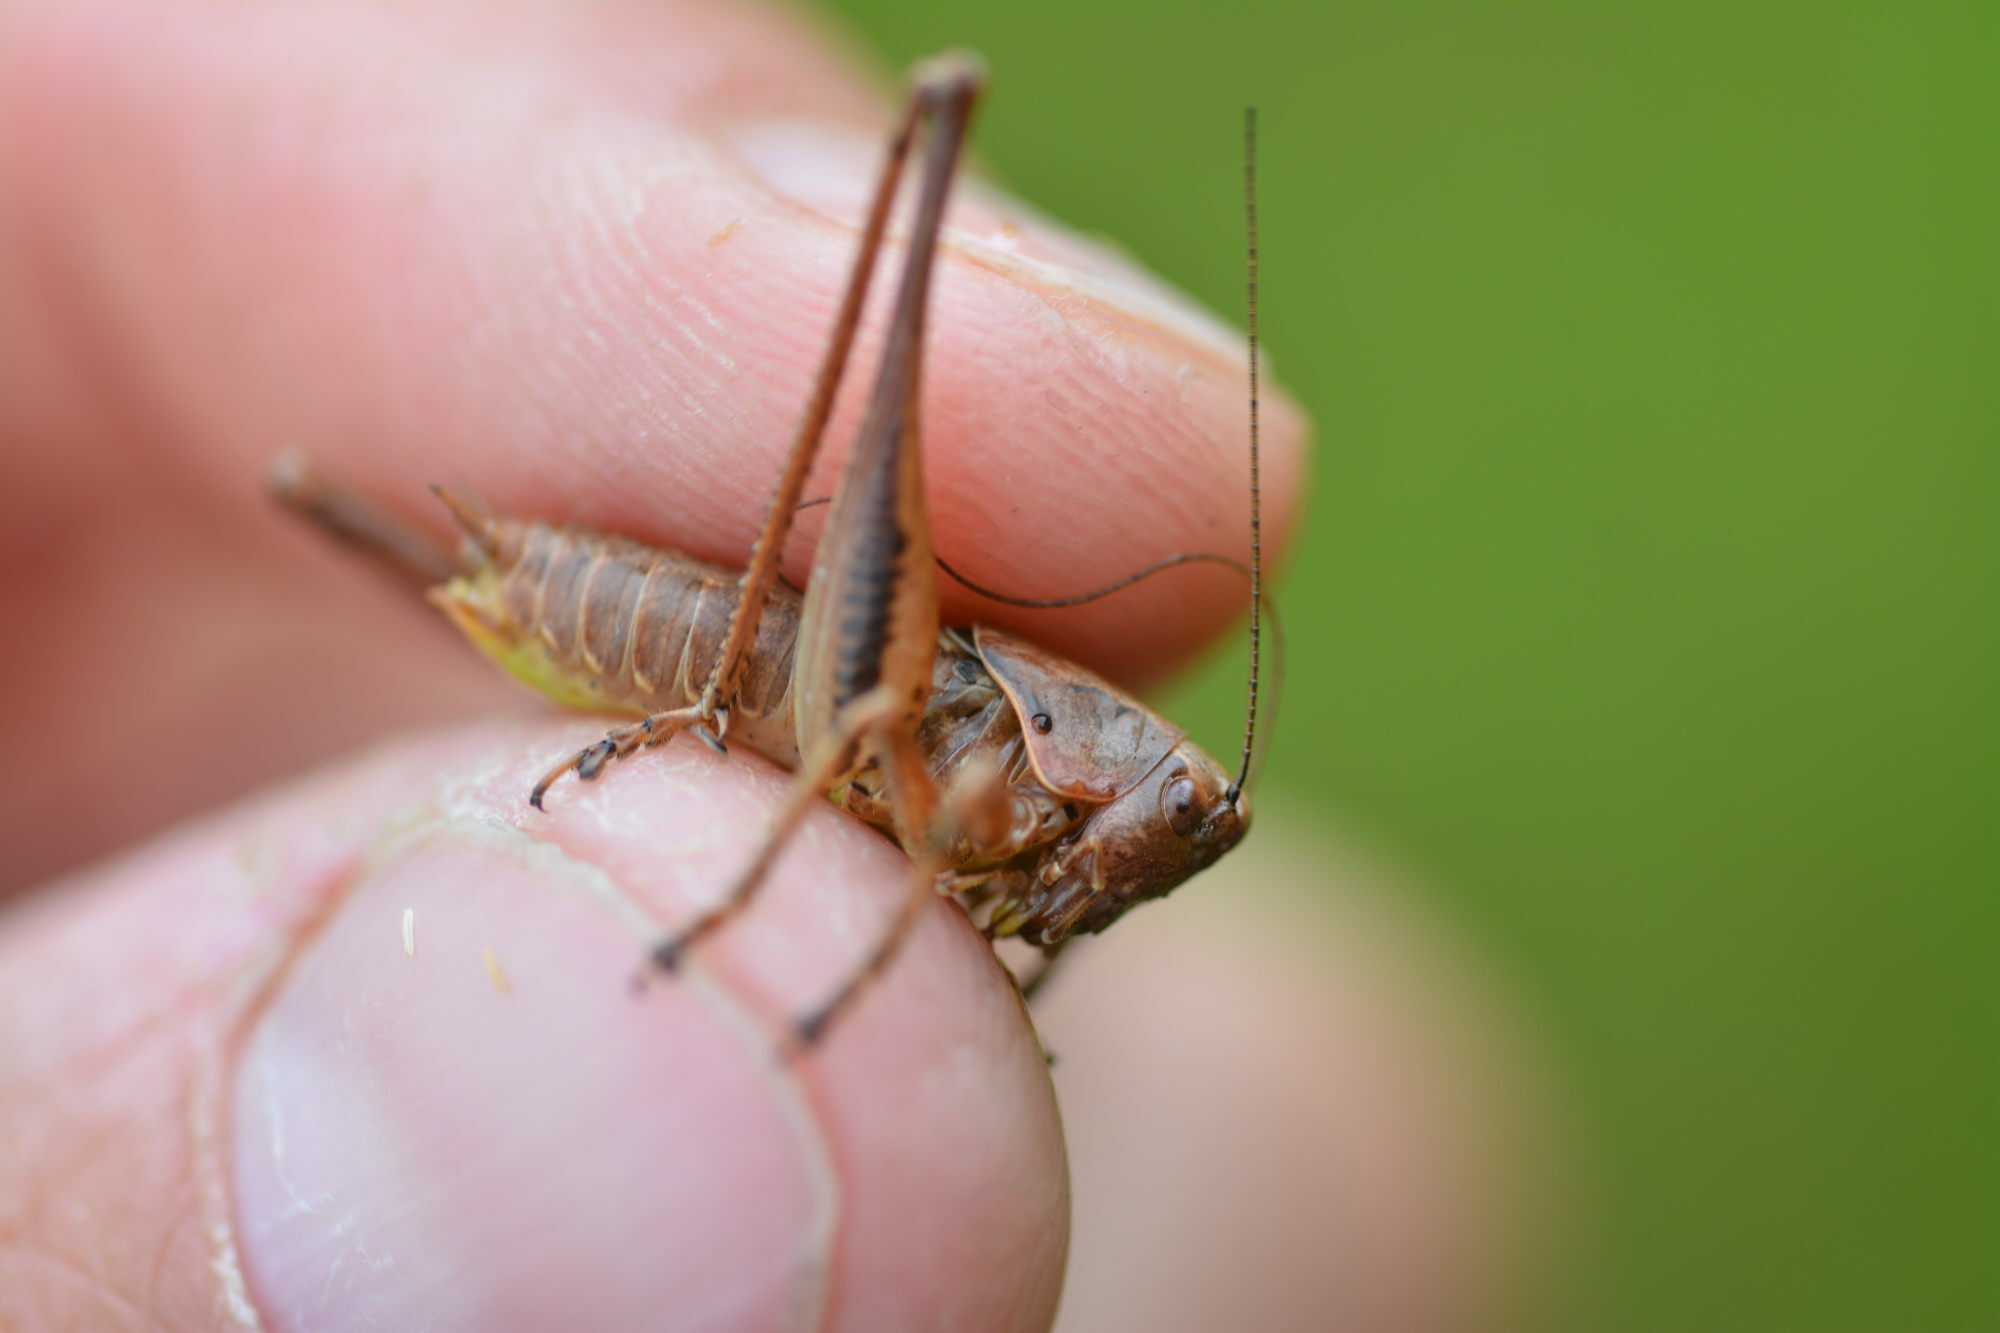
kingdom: Animalia
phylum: Arthropoda
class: Insecta
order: Orthoptera
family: Tettigoniidae
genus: Pholidoptera
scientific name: Pholidoptera griseoaptera
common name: Dark bush-cricket
